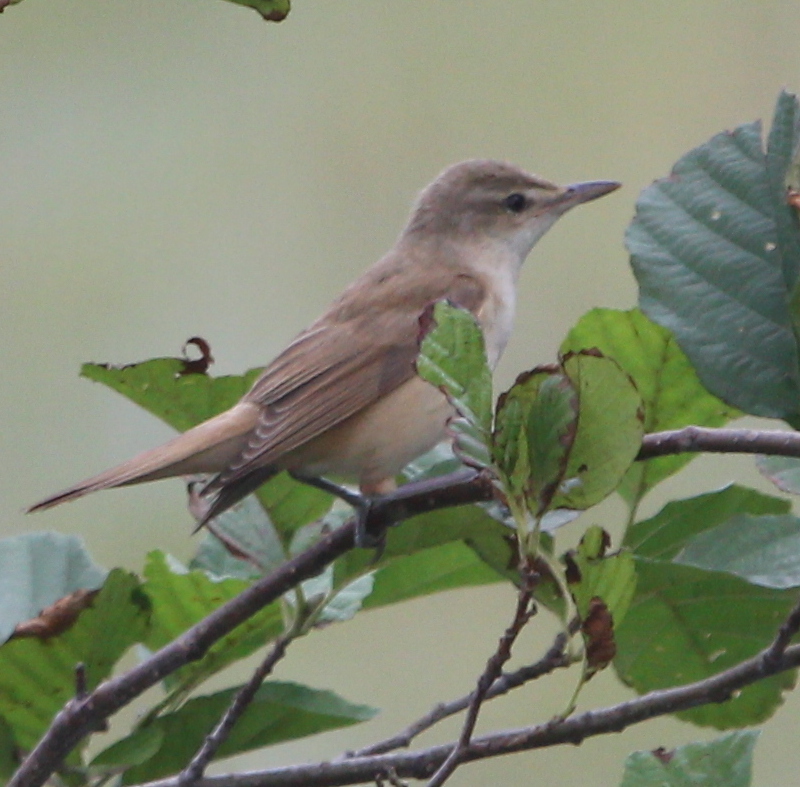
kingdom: Animalia
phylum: Chordata
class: Aves
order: Passeriformes
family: Acrocephalidae
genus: Acrocephalus
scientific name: Acrocephalus arundinaceus
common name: Great reed warbler
